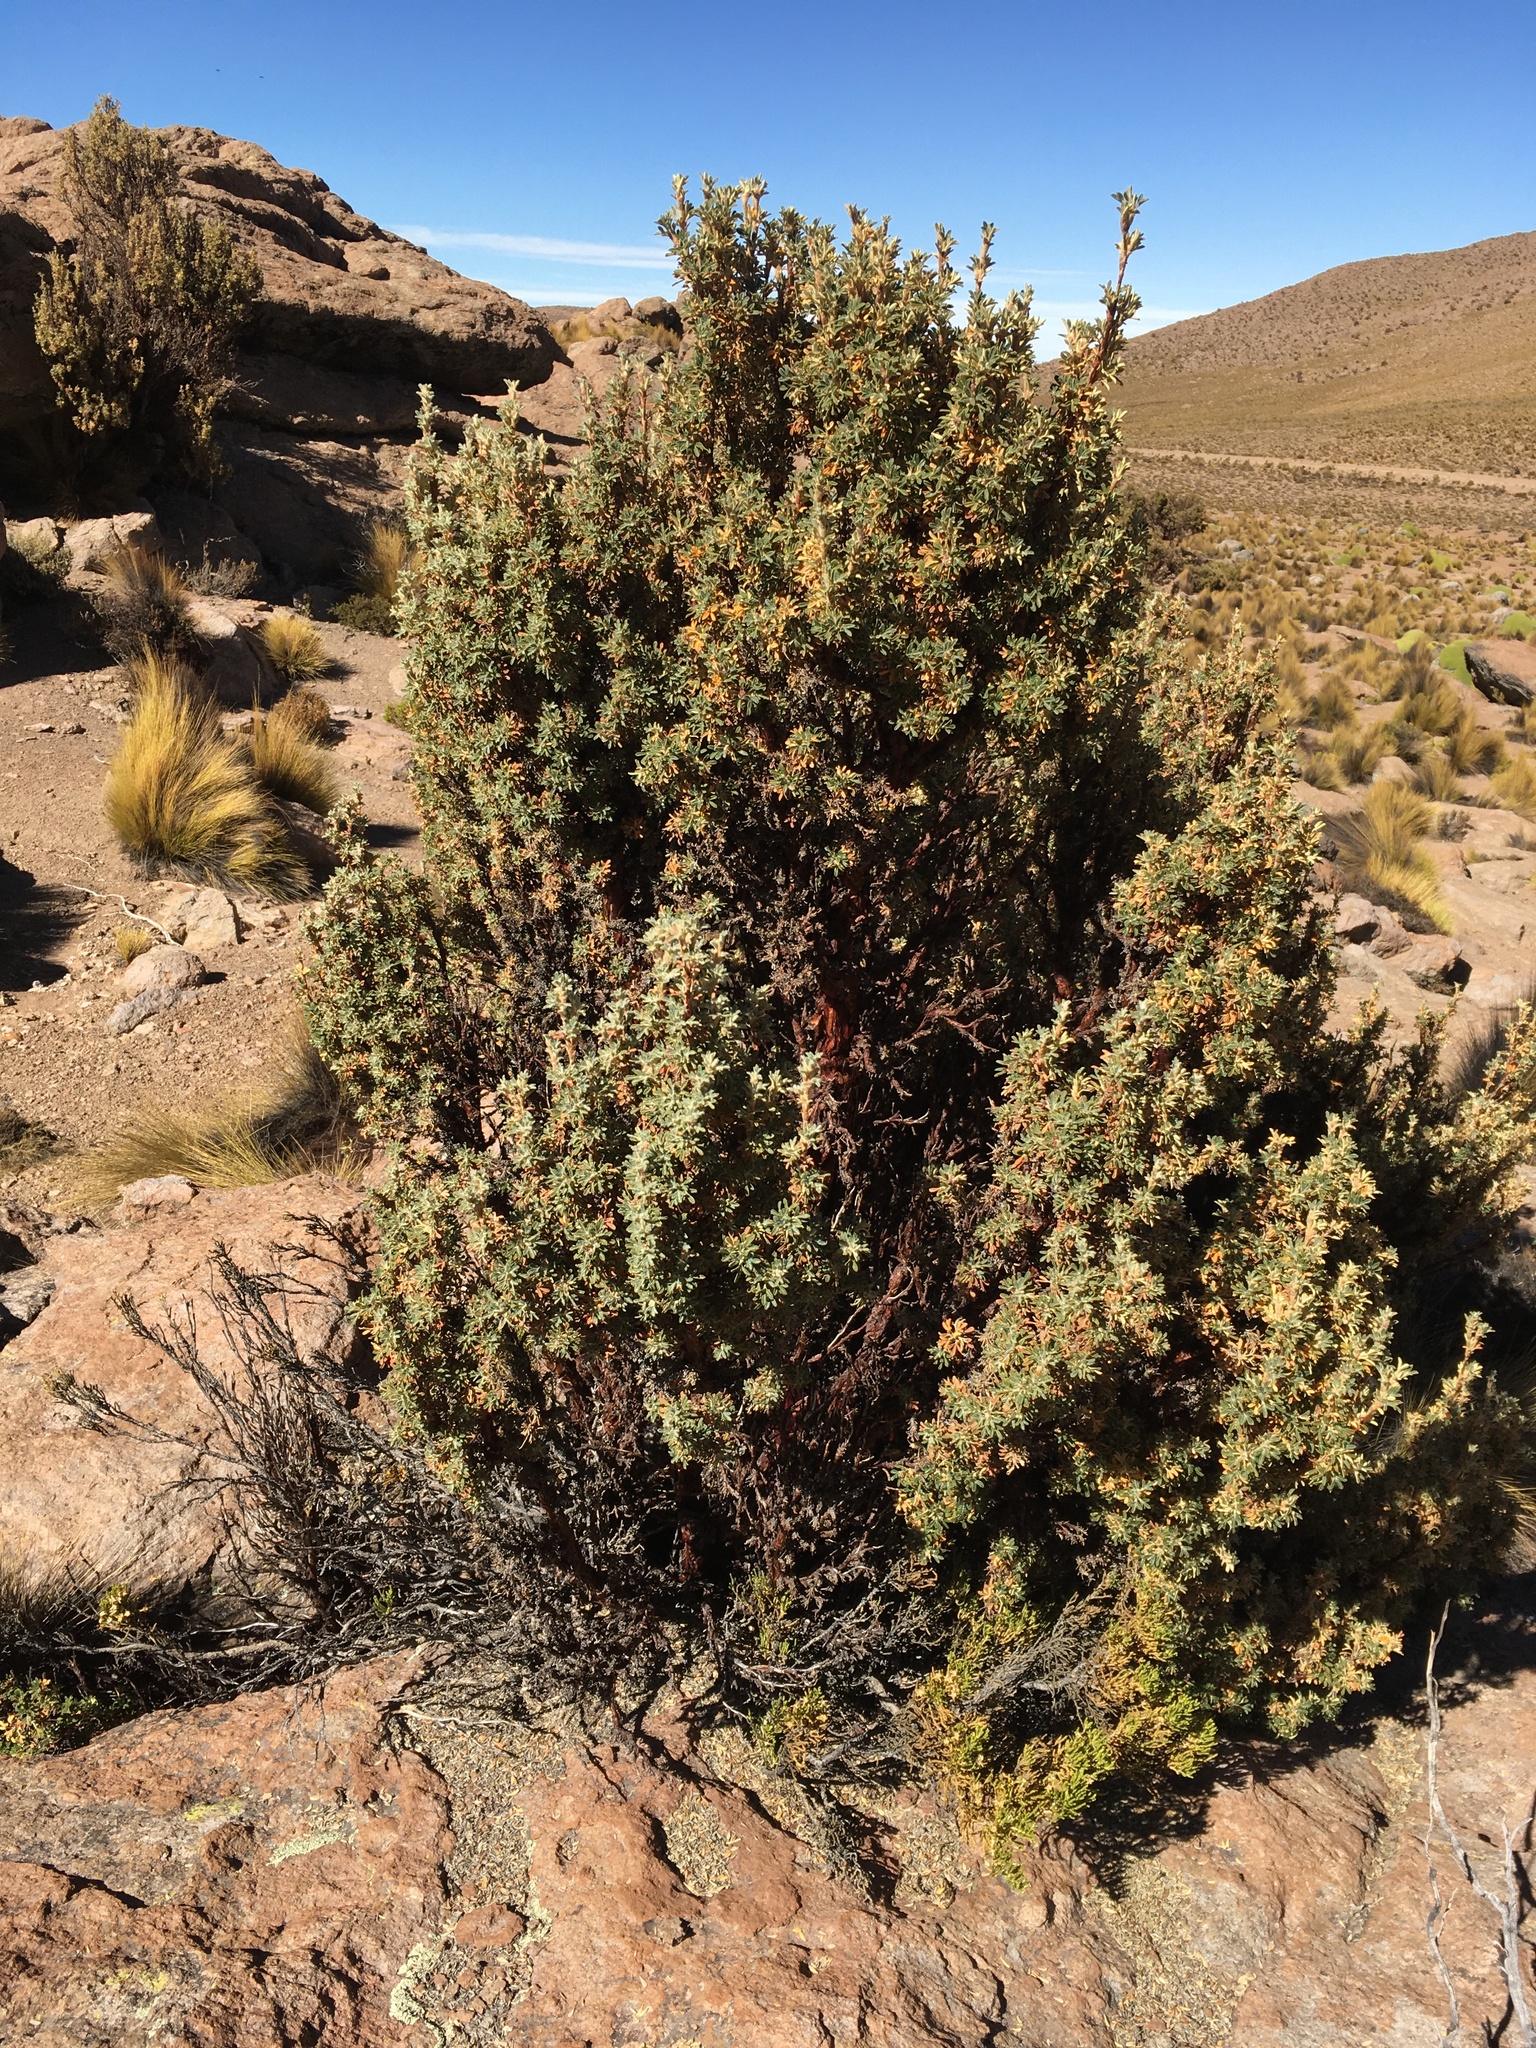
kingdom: Plantae
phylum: Tracheophyta
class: Magnoliopsida
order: Rosales
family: Rosaceae
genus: Polylepis
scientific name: Polylepis tarapacana
